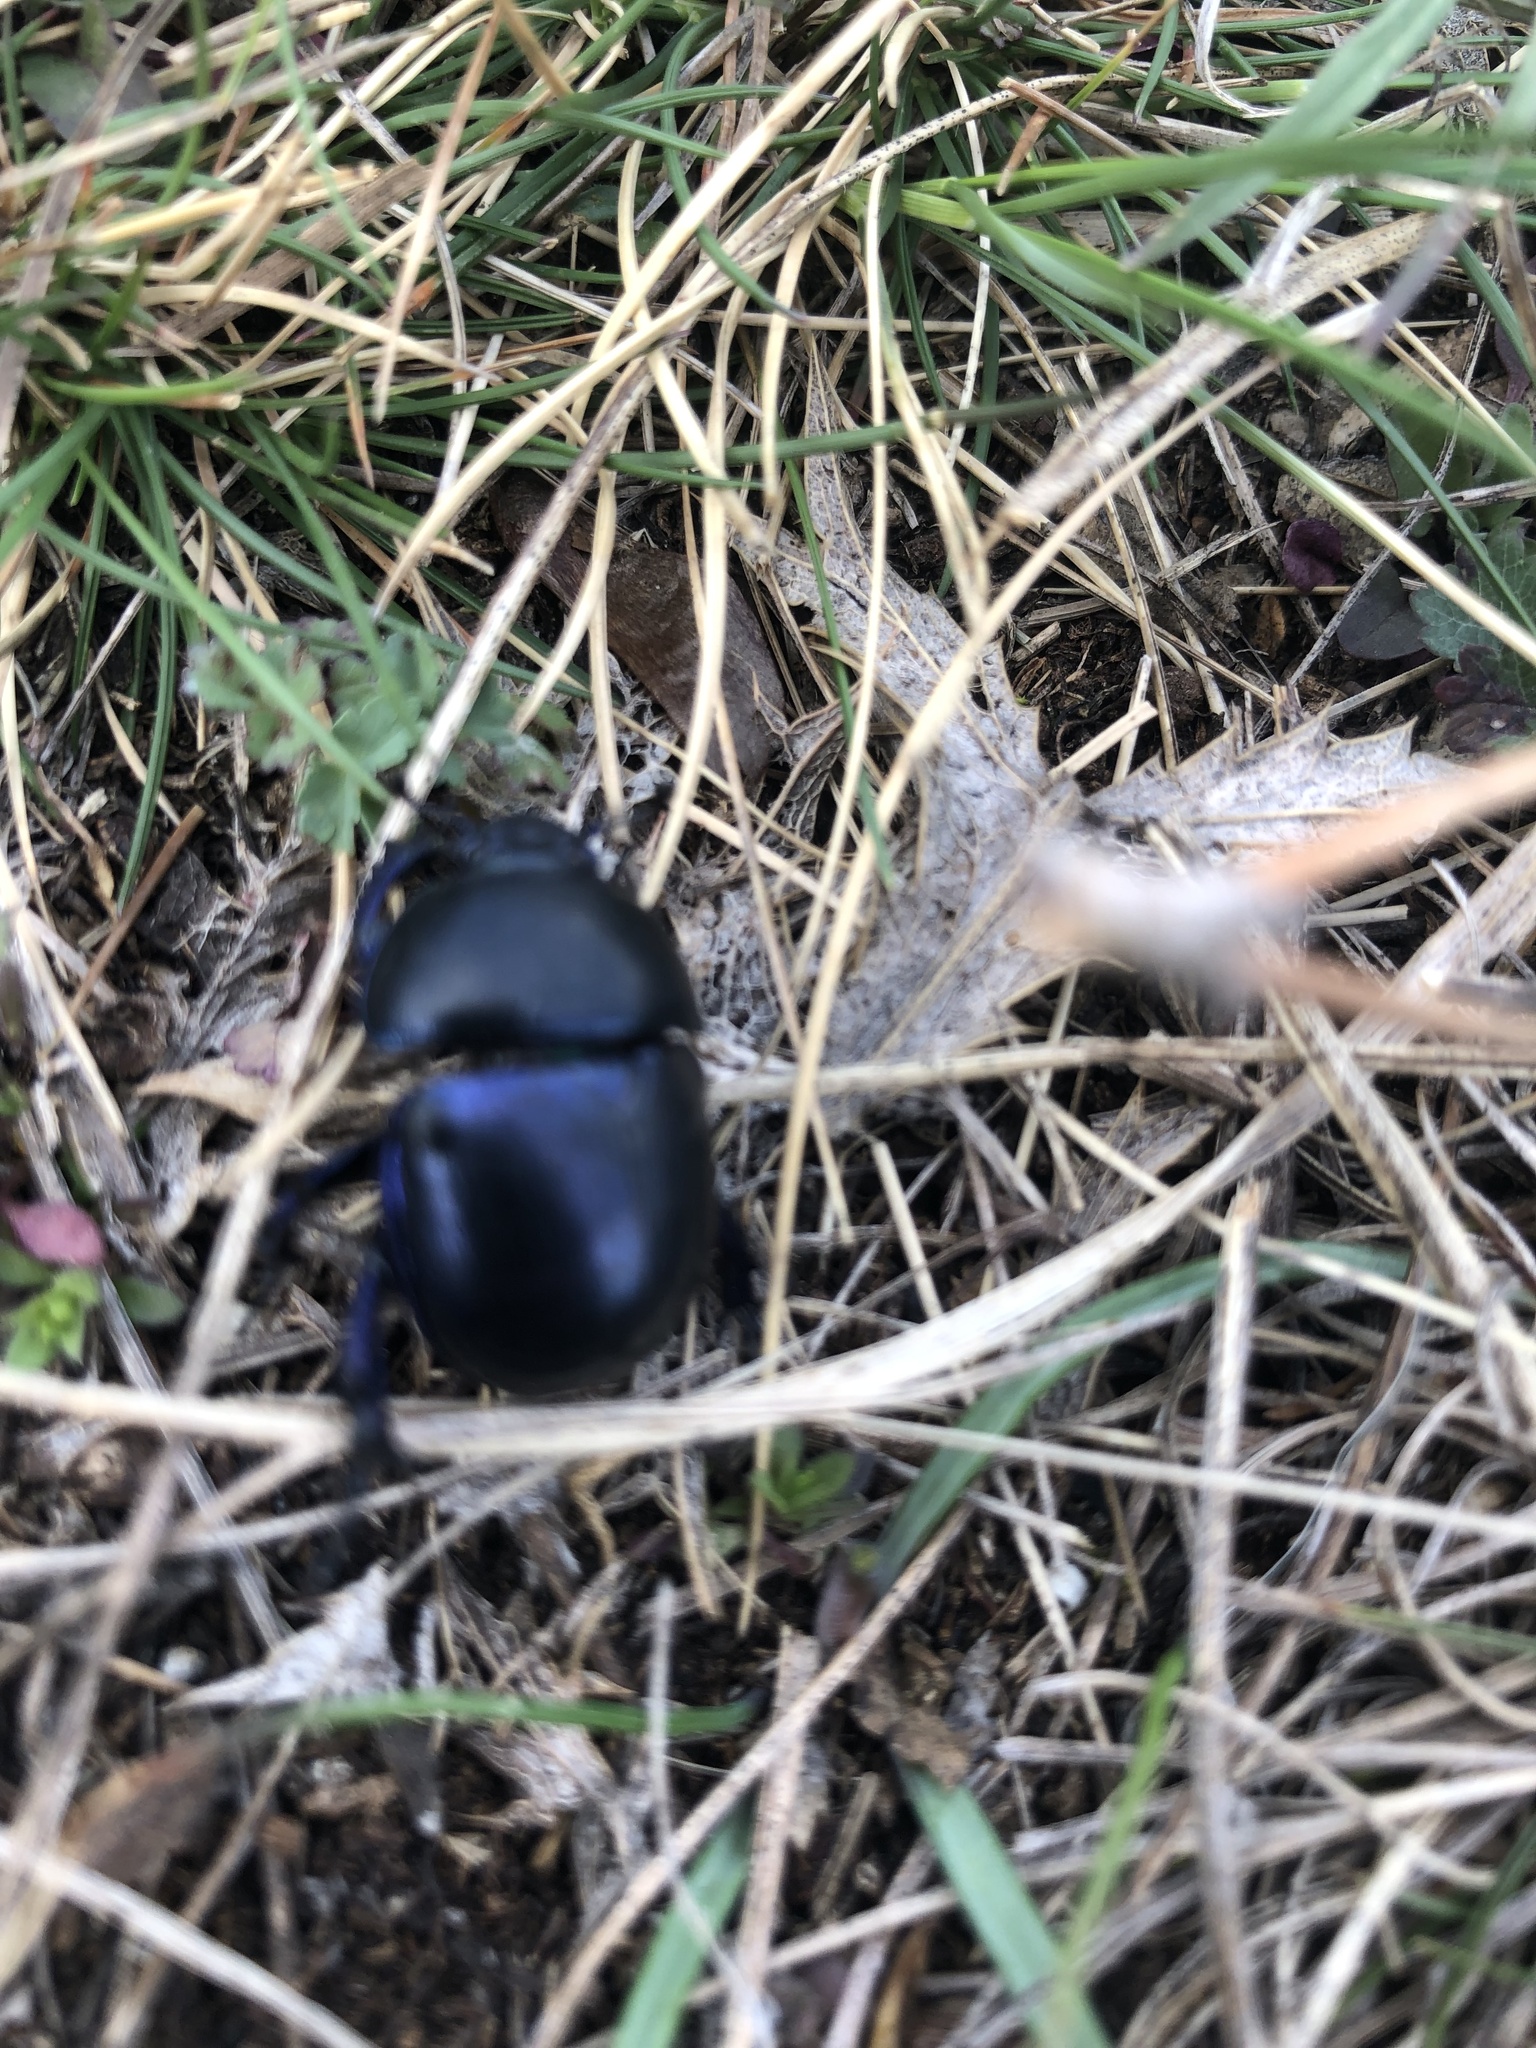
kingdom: Animalia
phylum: Arthropoda
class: Insecta
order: Coleoptera
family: Geotrupidae
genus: Trypocopris
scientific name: Trypocopris vernalis
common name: Spring dumbledor
